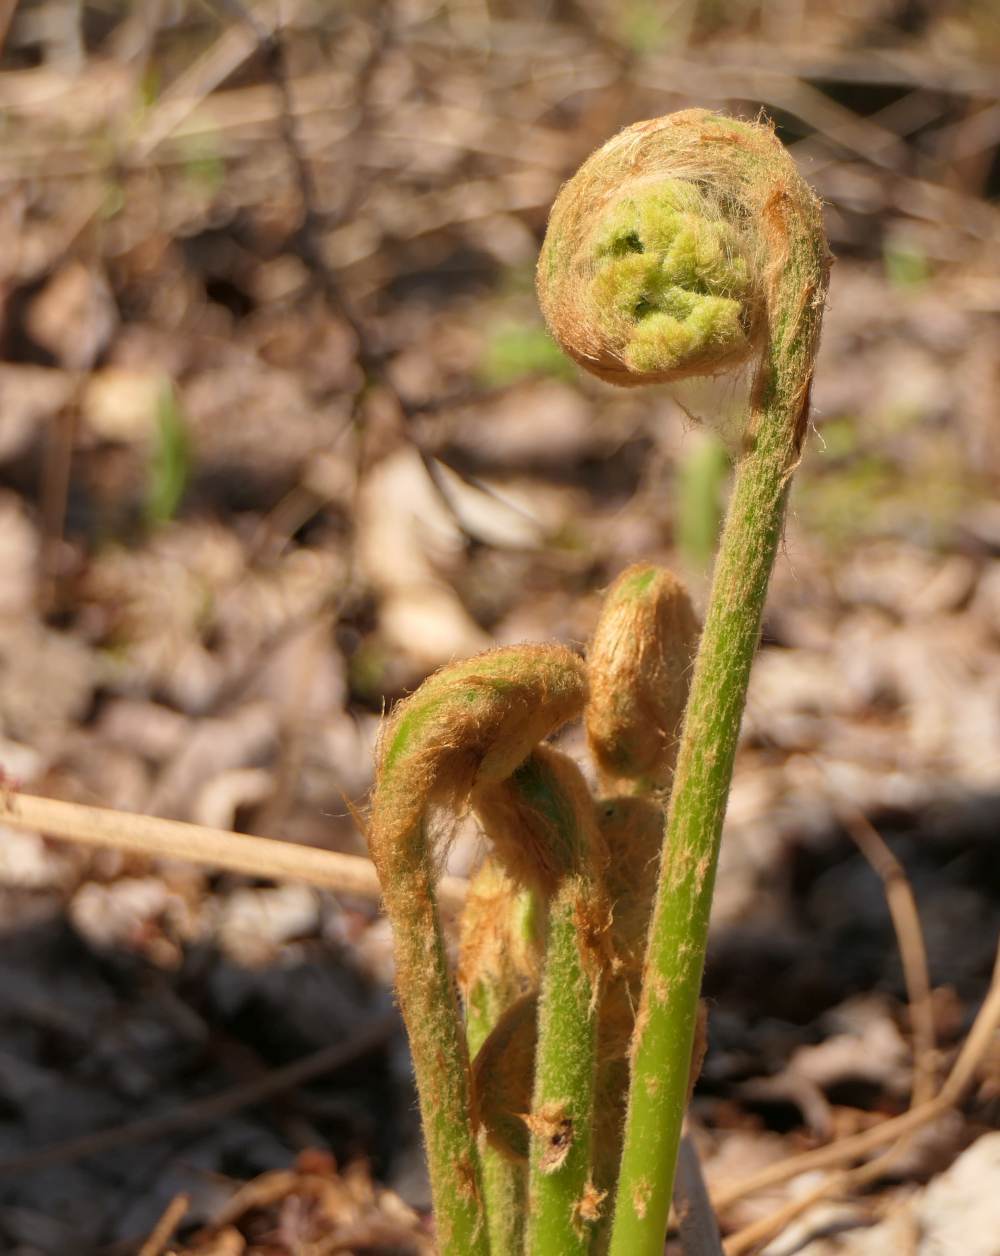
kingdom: Plantae
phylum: Tracheophyta
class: Polypodiopsida
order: Osmundales
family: Osmundaceae
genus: Osmundastrum
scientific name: Osmundastrum cinnamomeum
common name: Cinnamon fern
